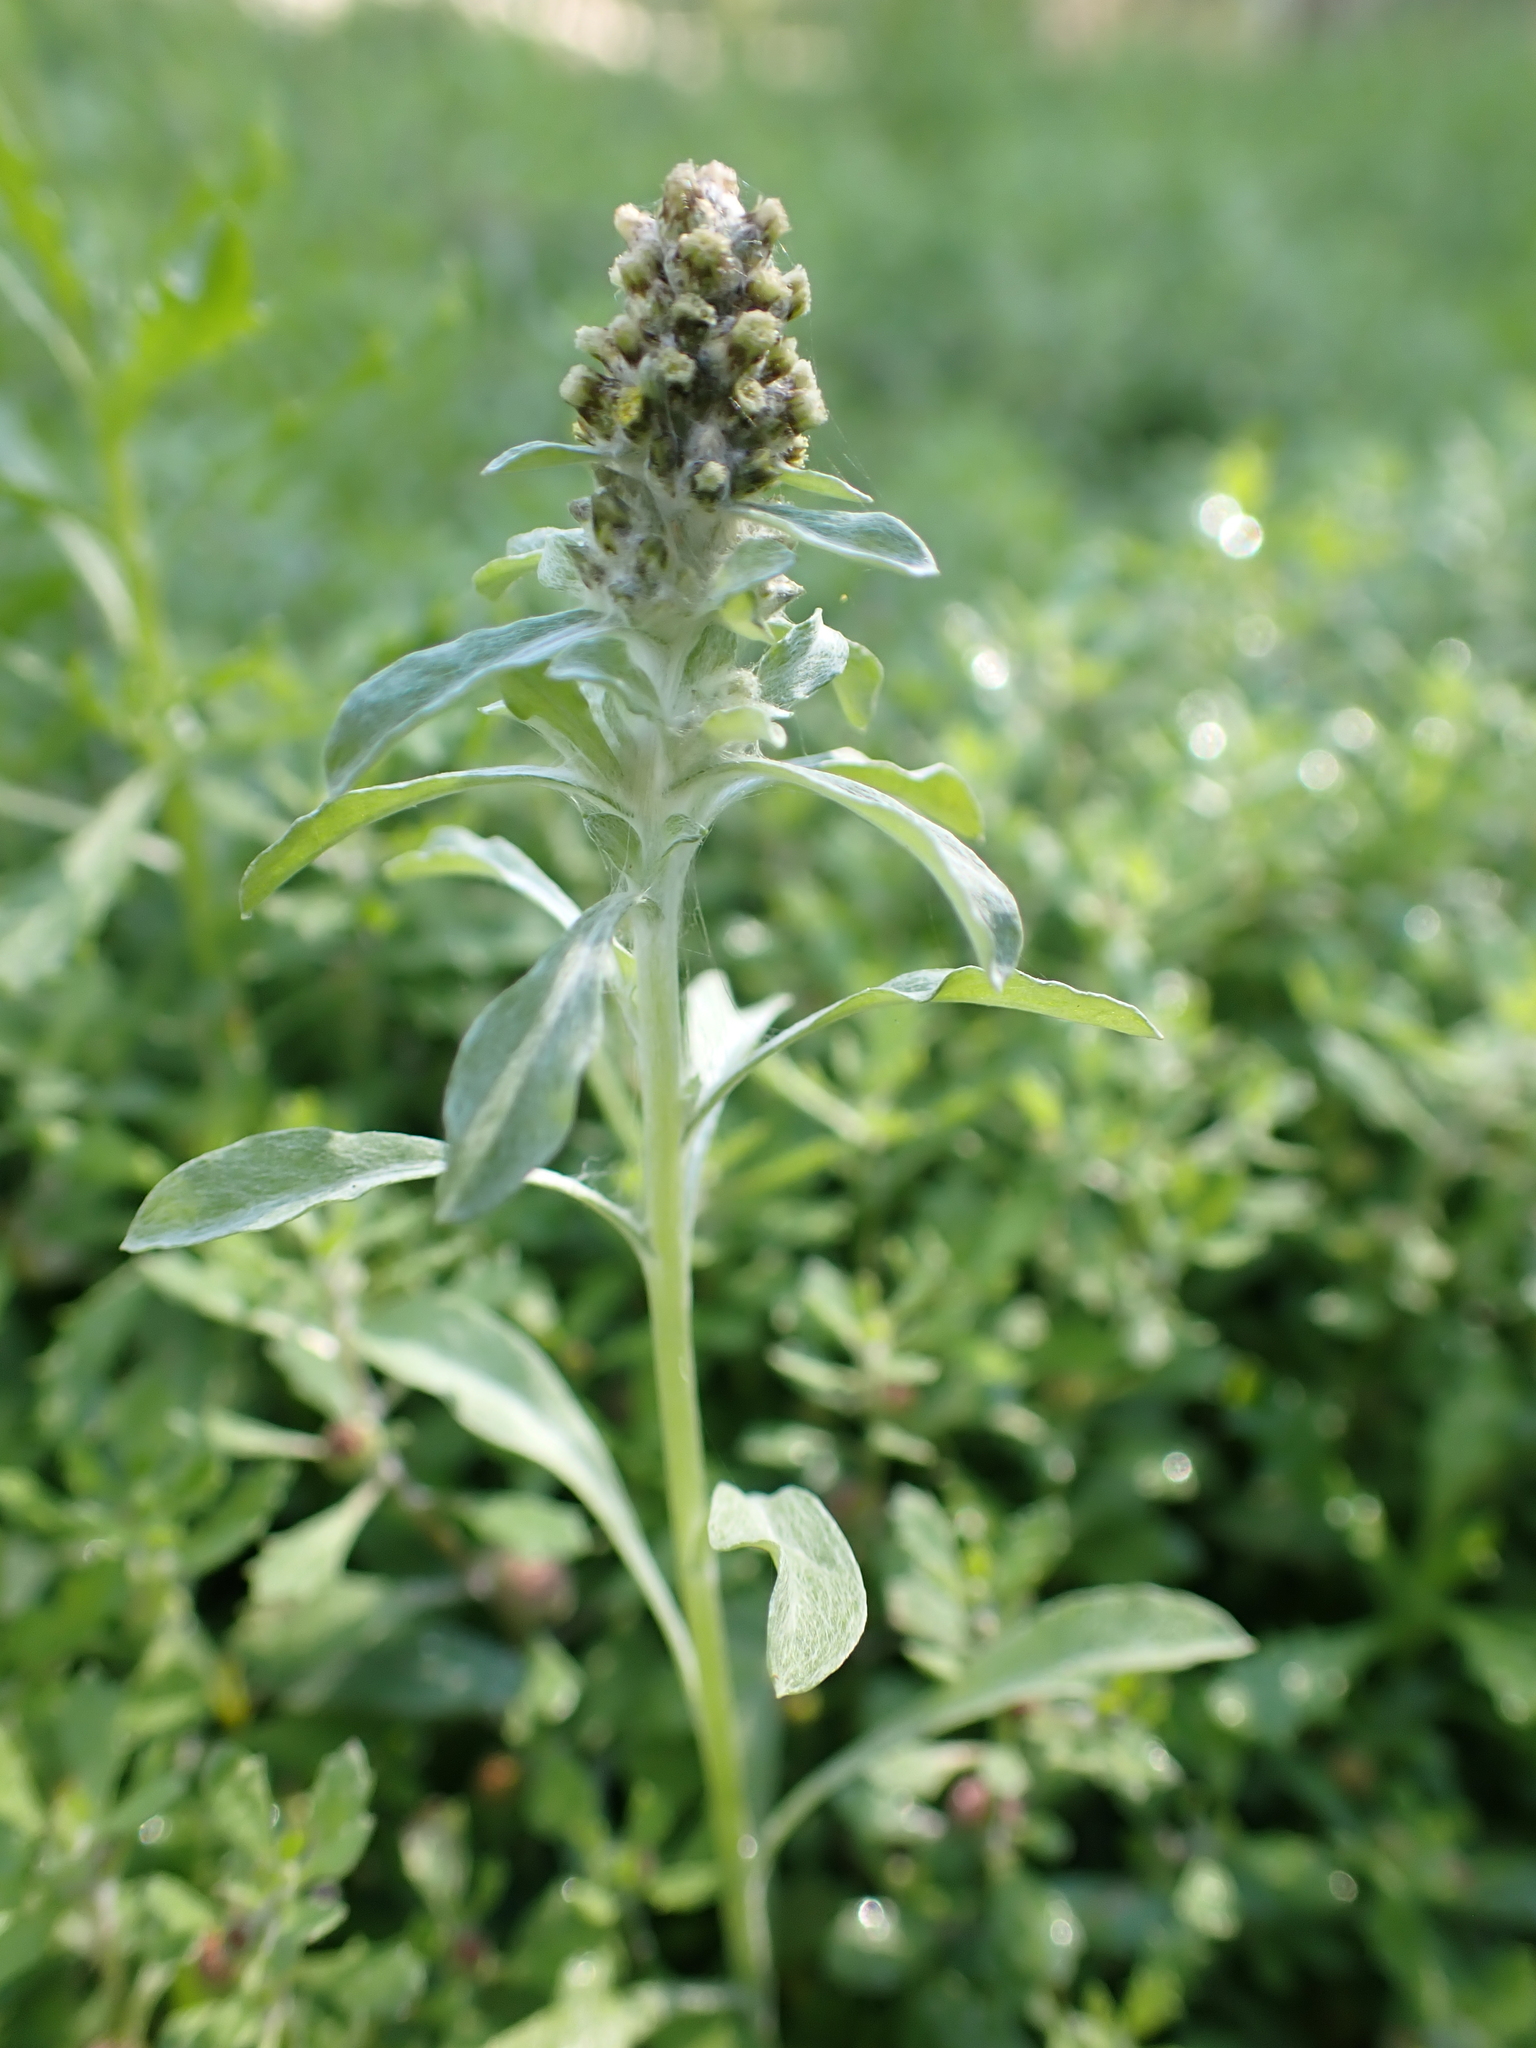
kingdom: Plantae
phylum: Tracheophyta
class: Magnoliopsida
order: Asterales
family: Asteraceae
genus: Gnaphalium
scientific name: Gnaphalium polycaulon
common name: Western cudweed
